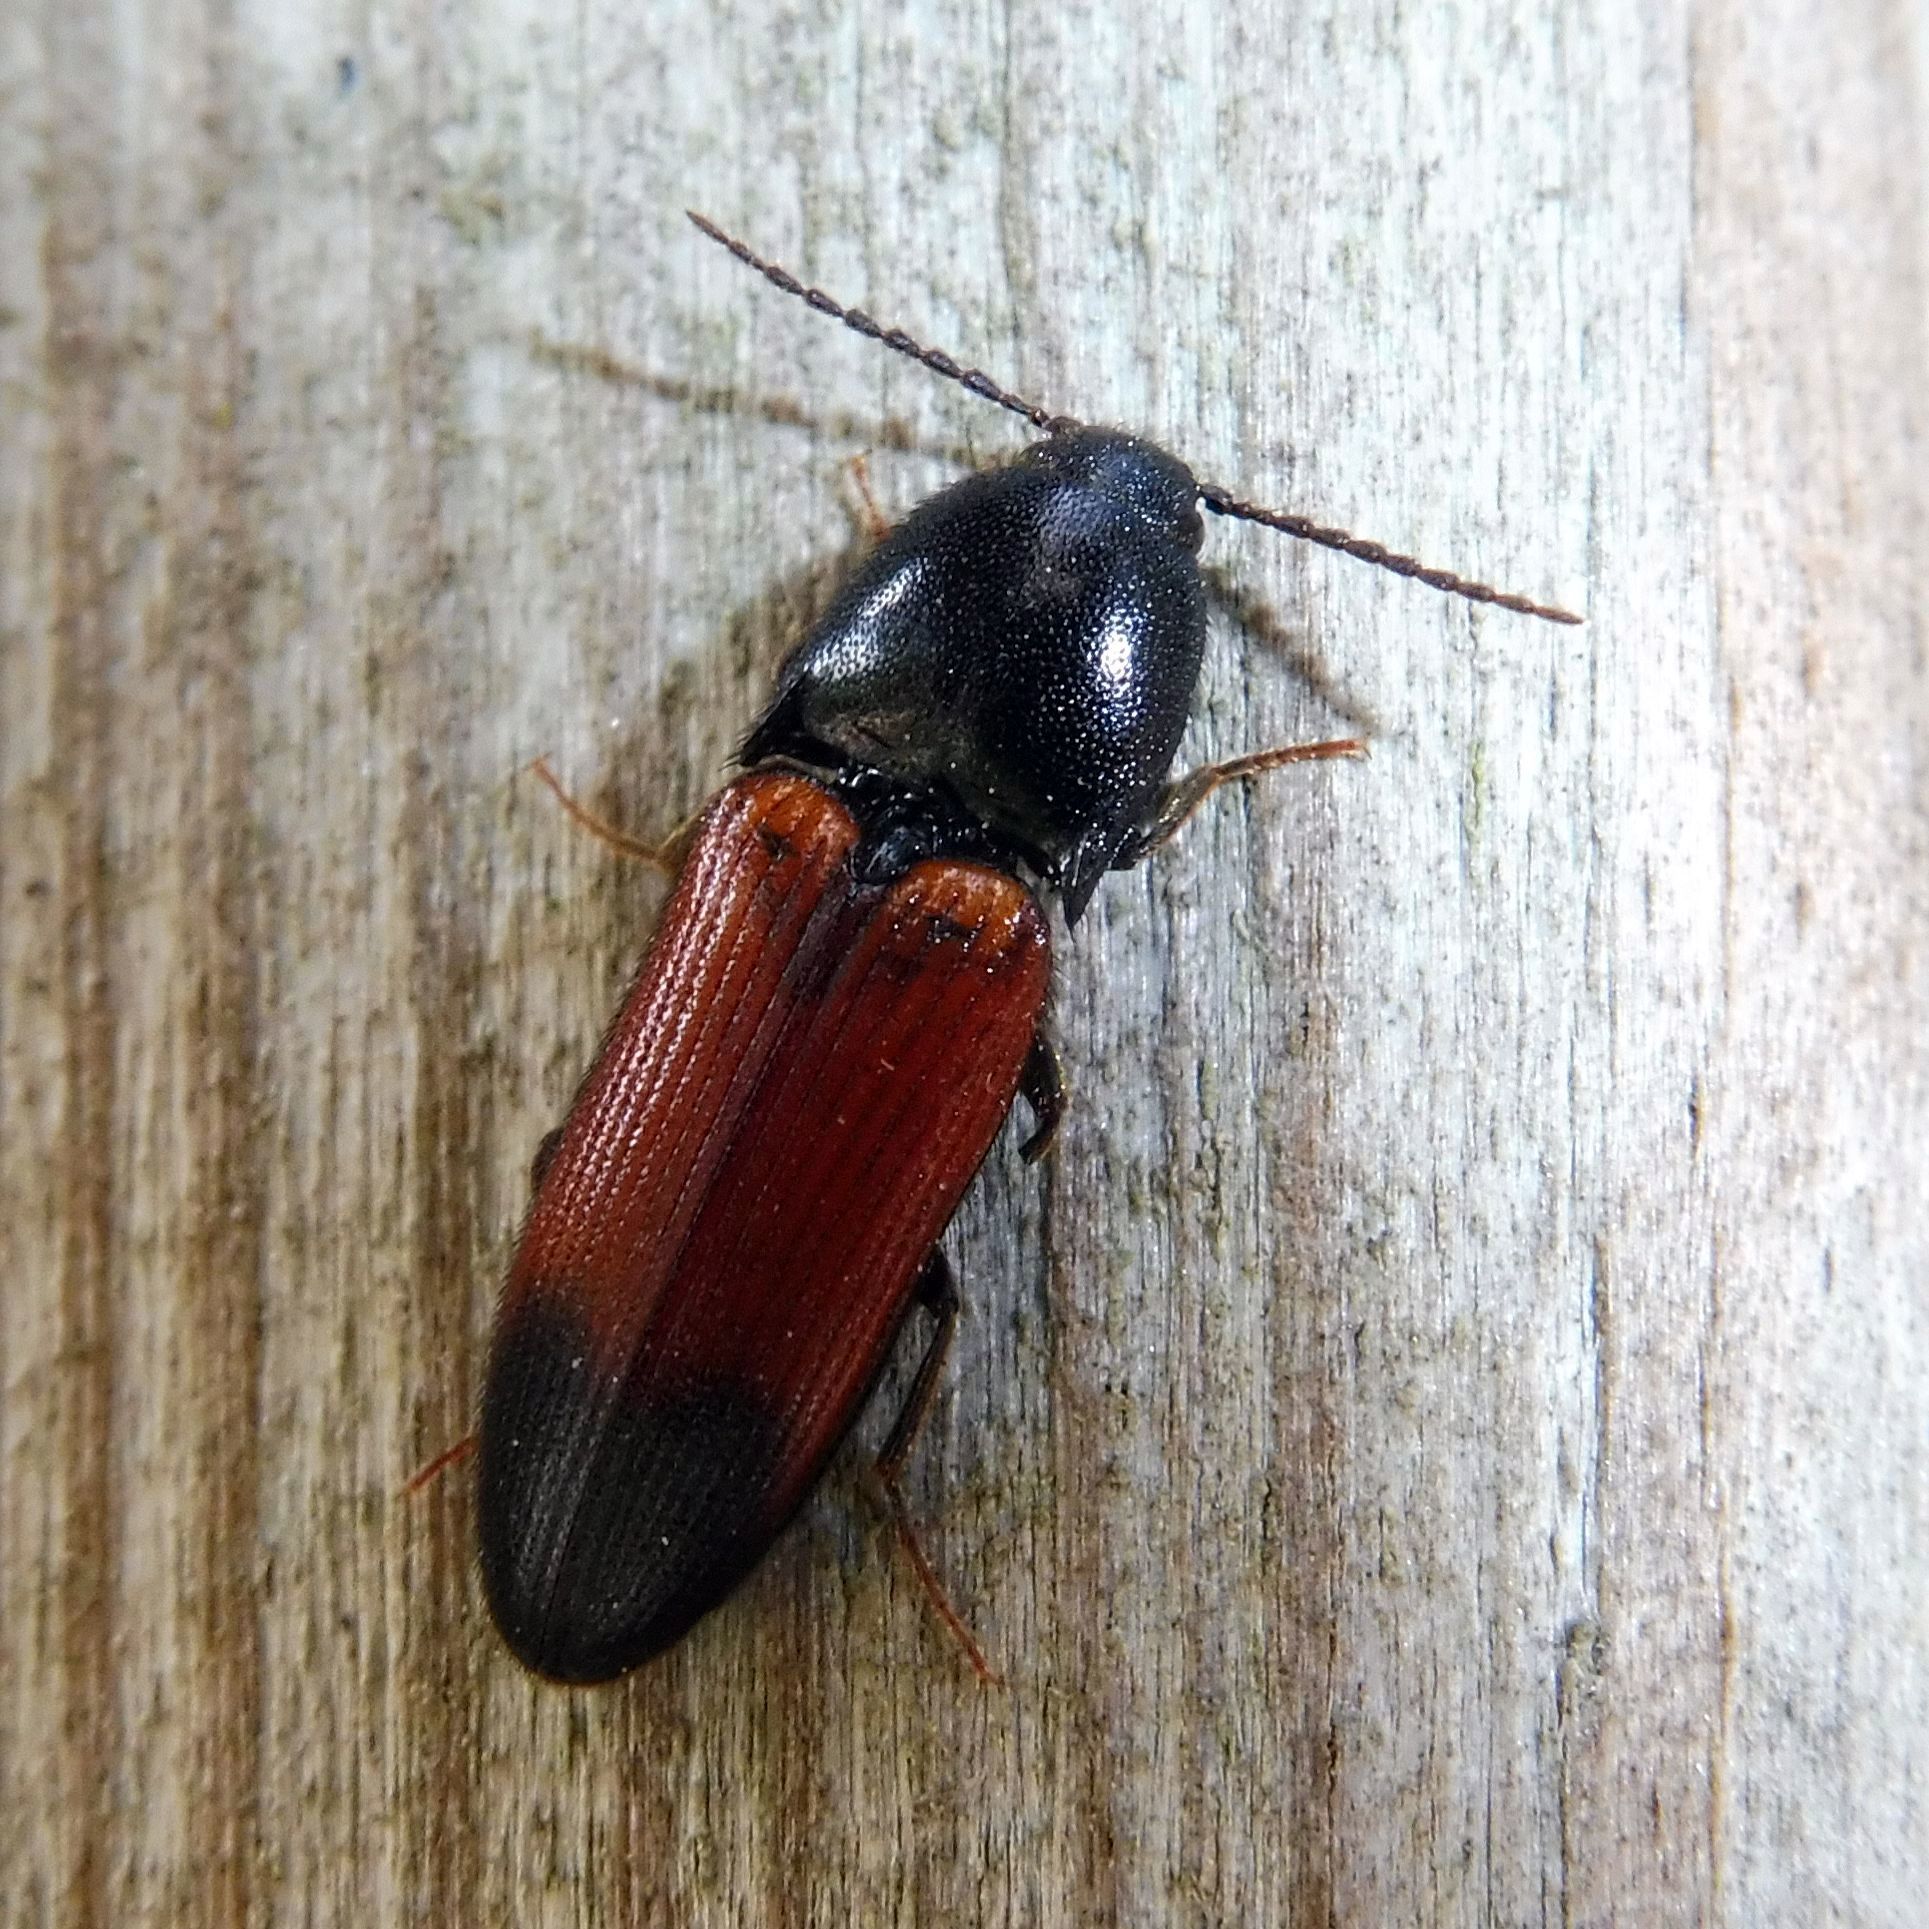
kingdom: Animalia
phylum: Arthropoda
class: Insecta
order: Coleoptera
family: Elateridae
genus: Ampedus
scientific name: Ampedus balteatus
